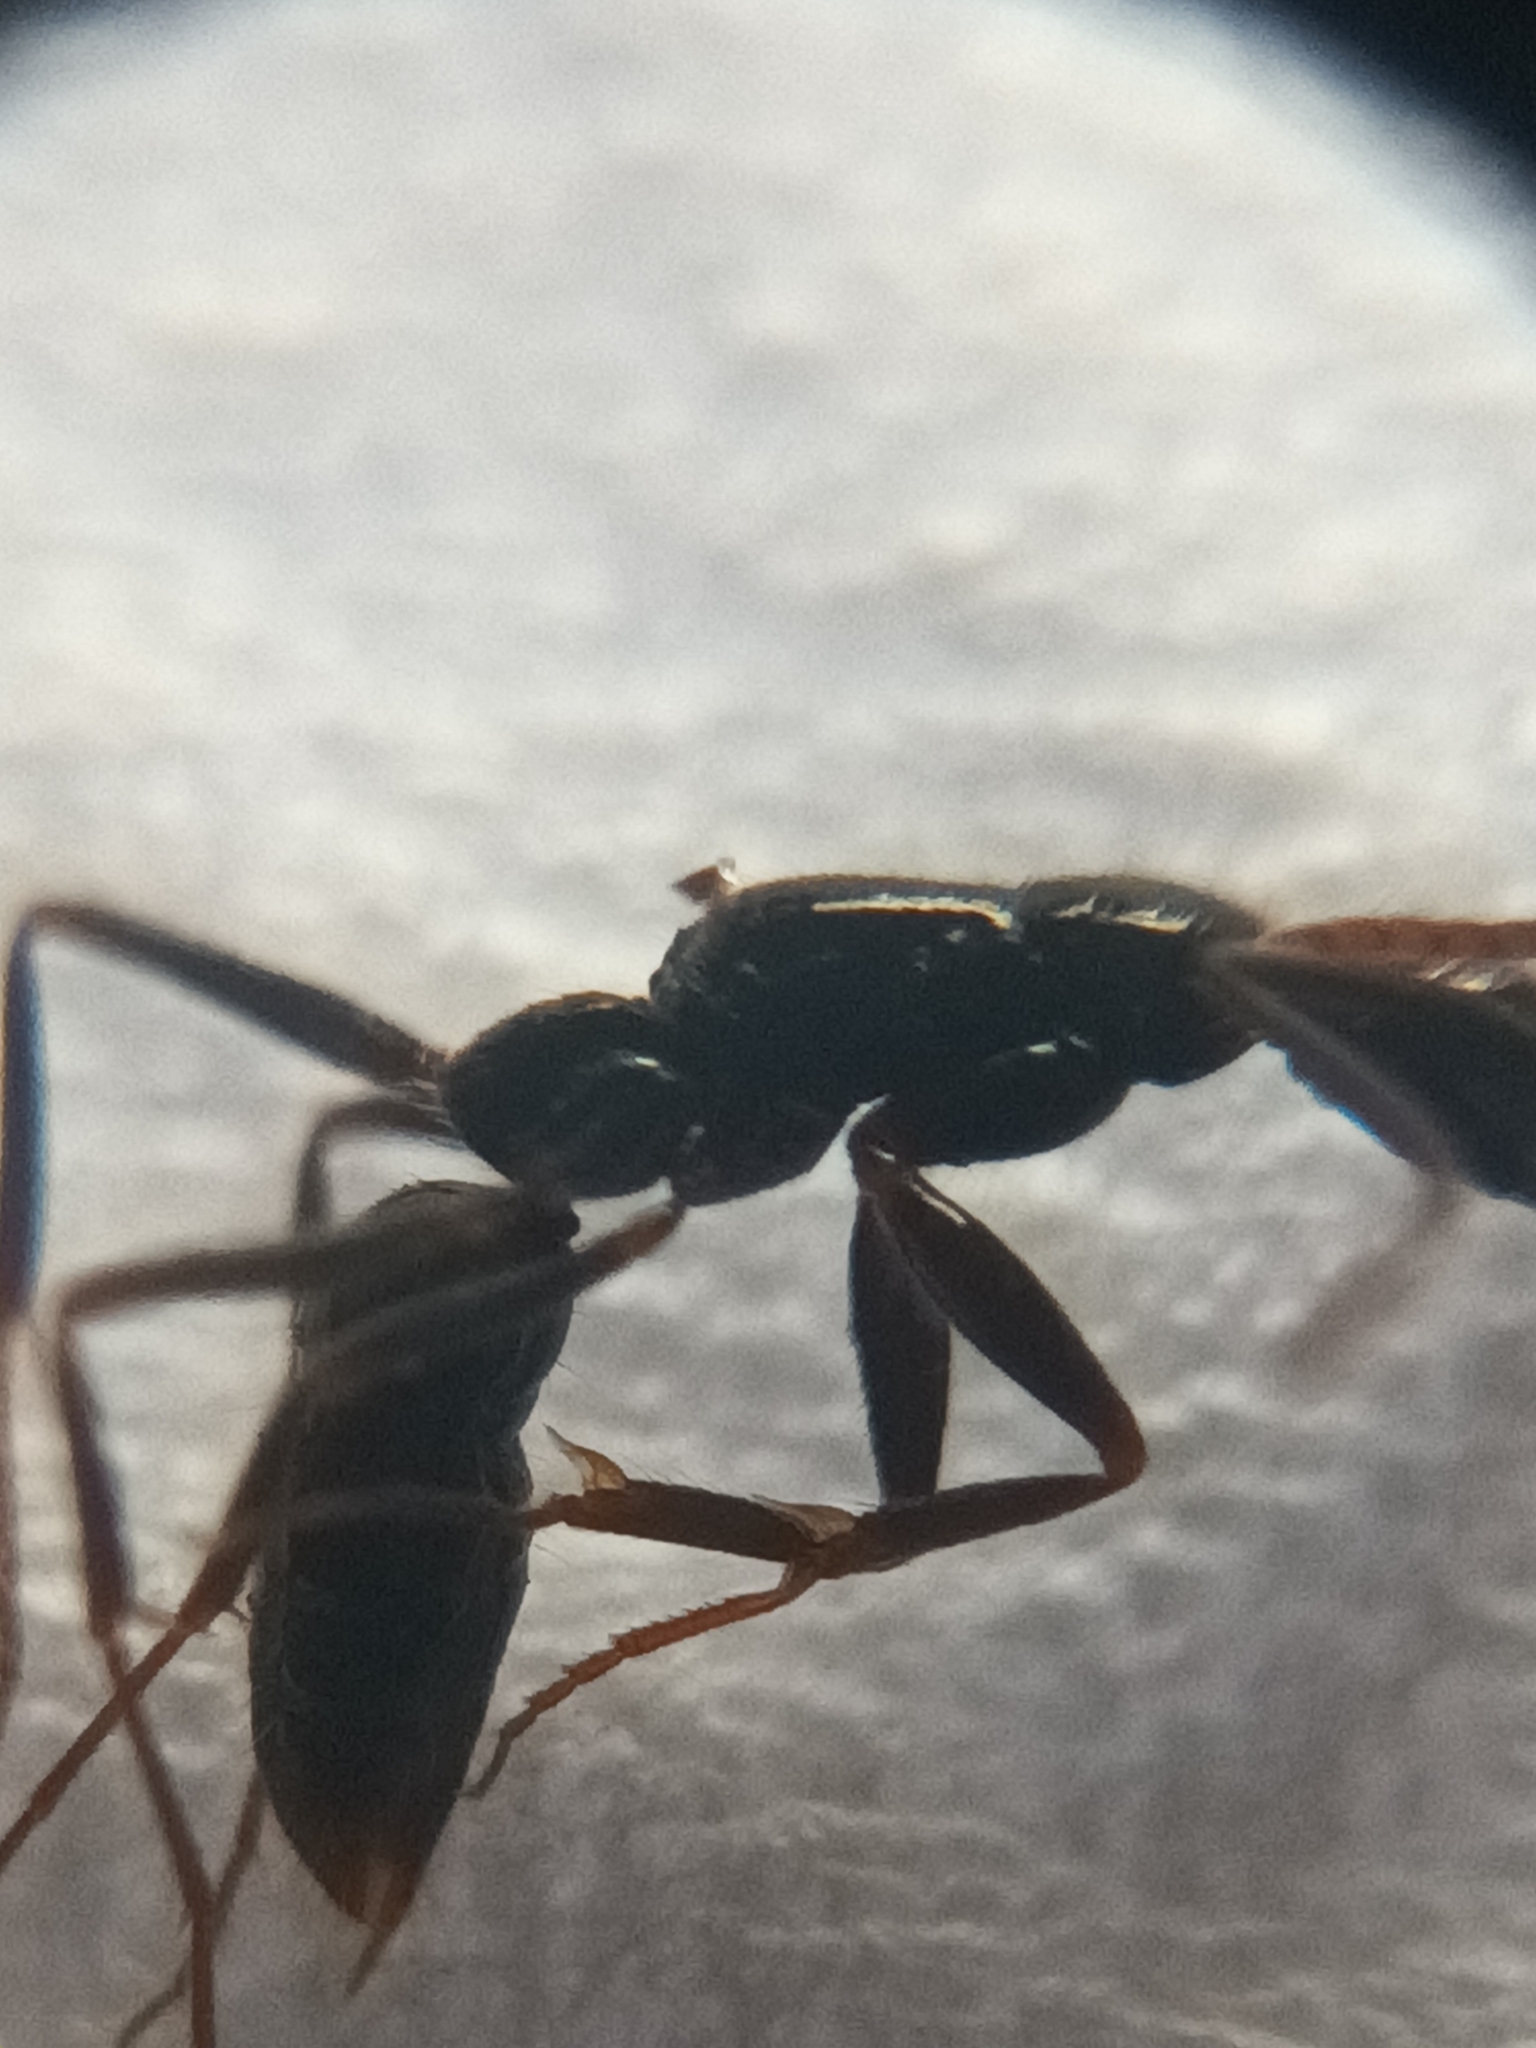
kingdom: Animalia
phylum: Arthropoda
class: Insecta
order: Hymenoptera
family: Formicidae
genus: Leptogenys
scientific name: Leptogenys peuqueti
